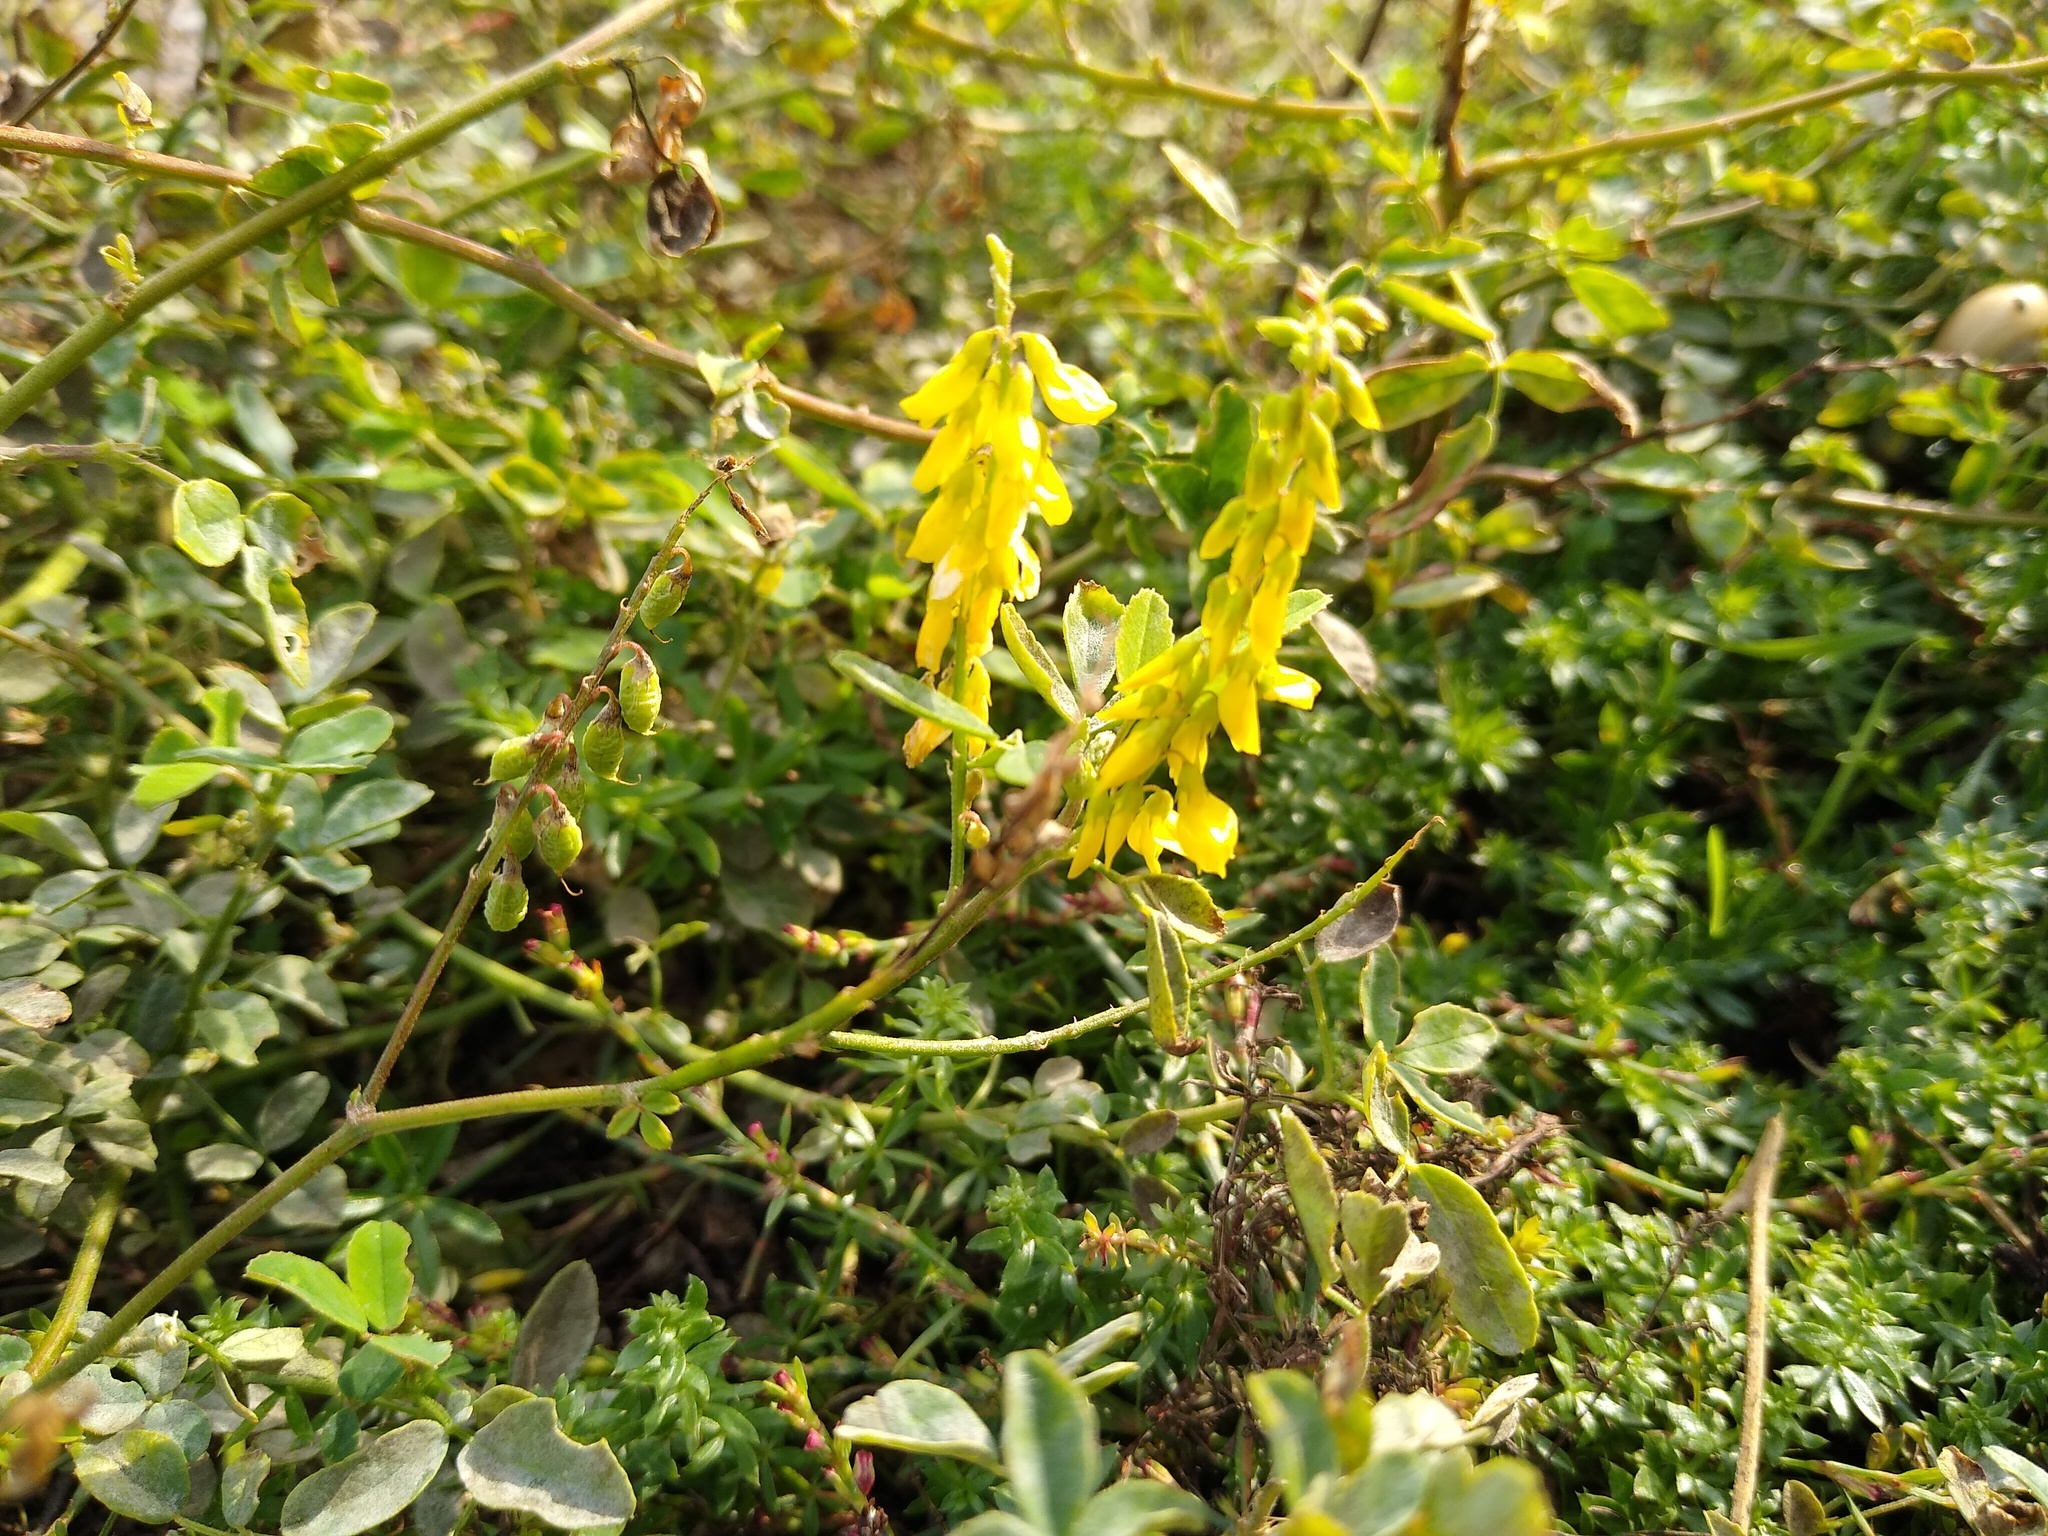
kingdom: Plantae
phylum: Tracheophyta
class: Magnoliopsida
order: Fabales
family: Fabaceae
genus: Melilotus
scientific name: Melilotus officinalis
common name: Sweetclover
